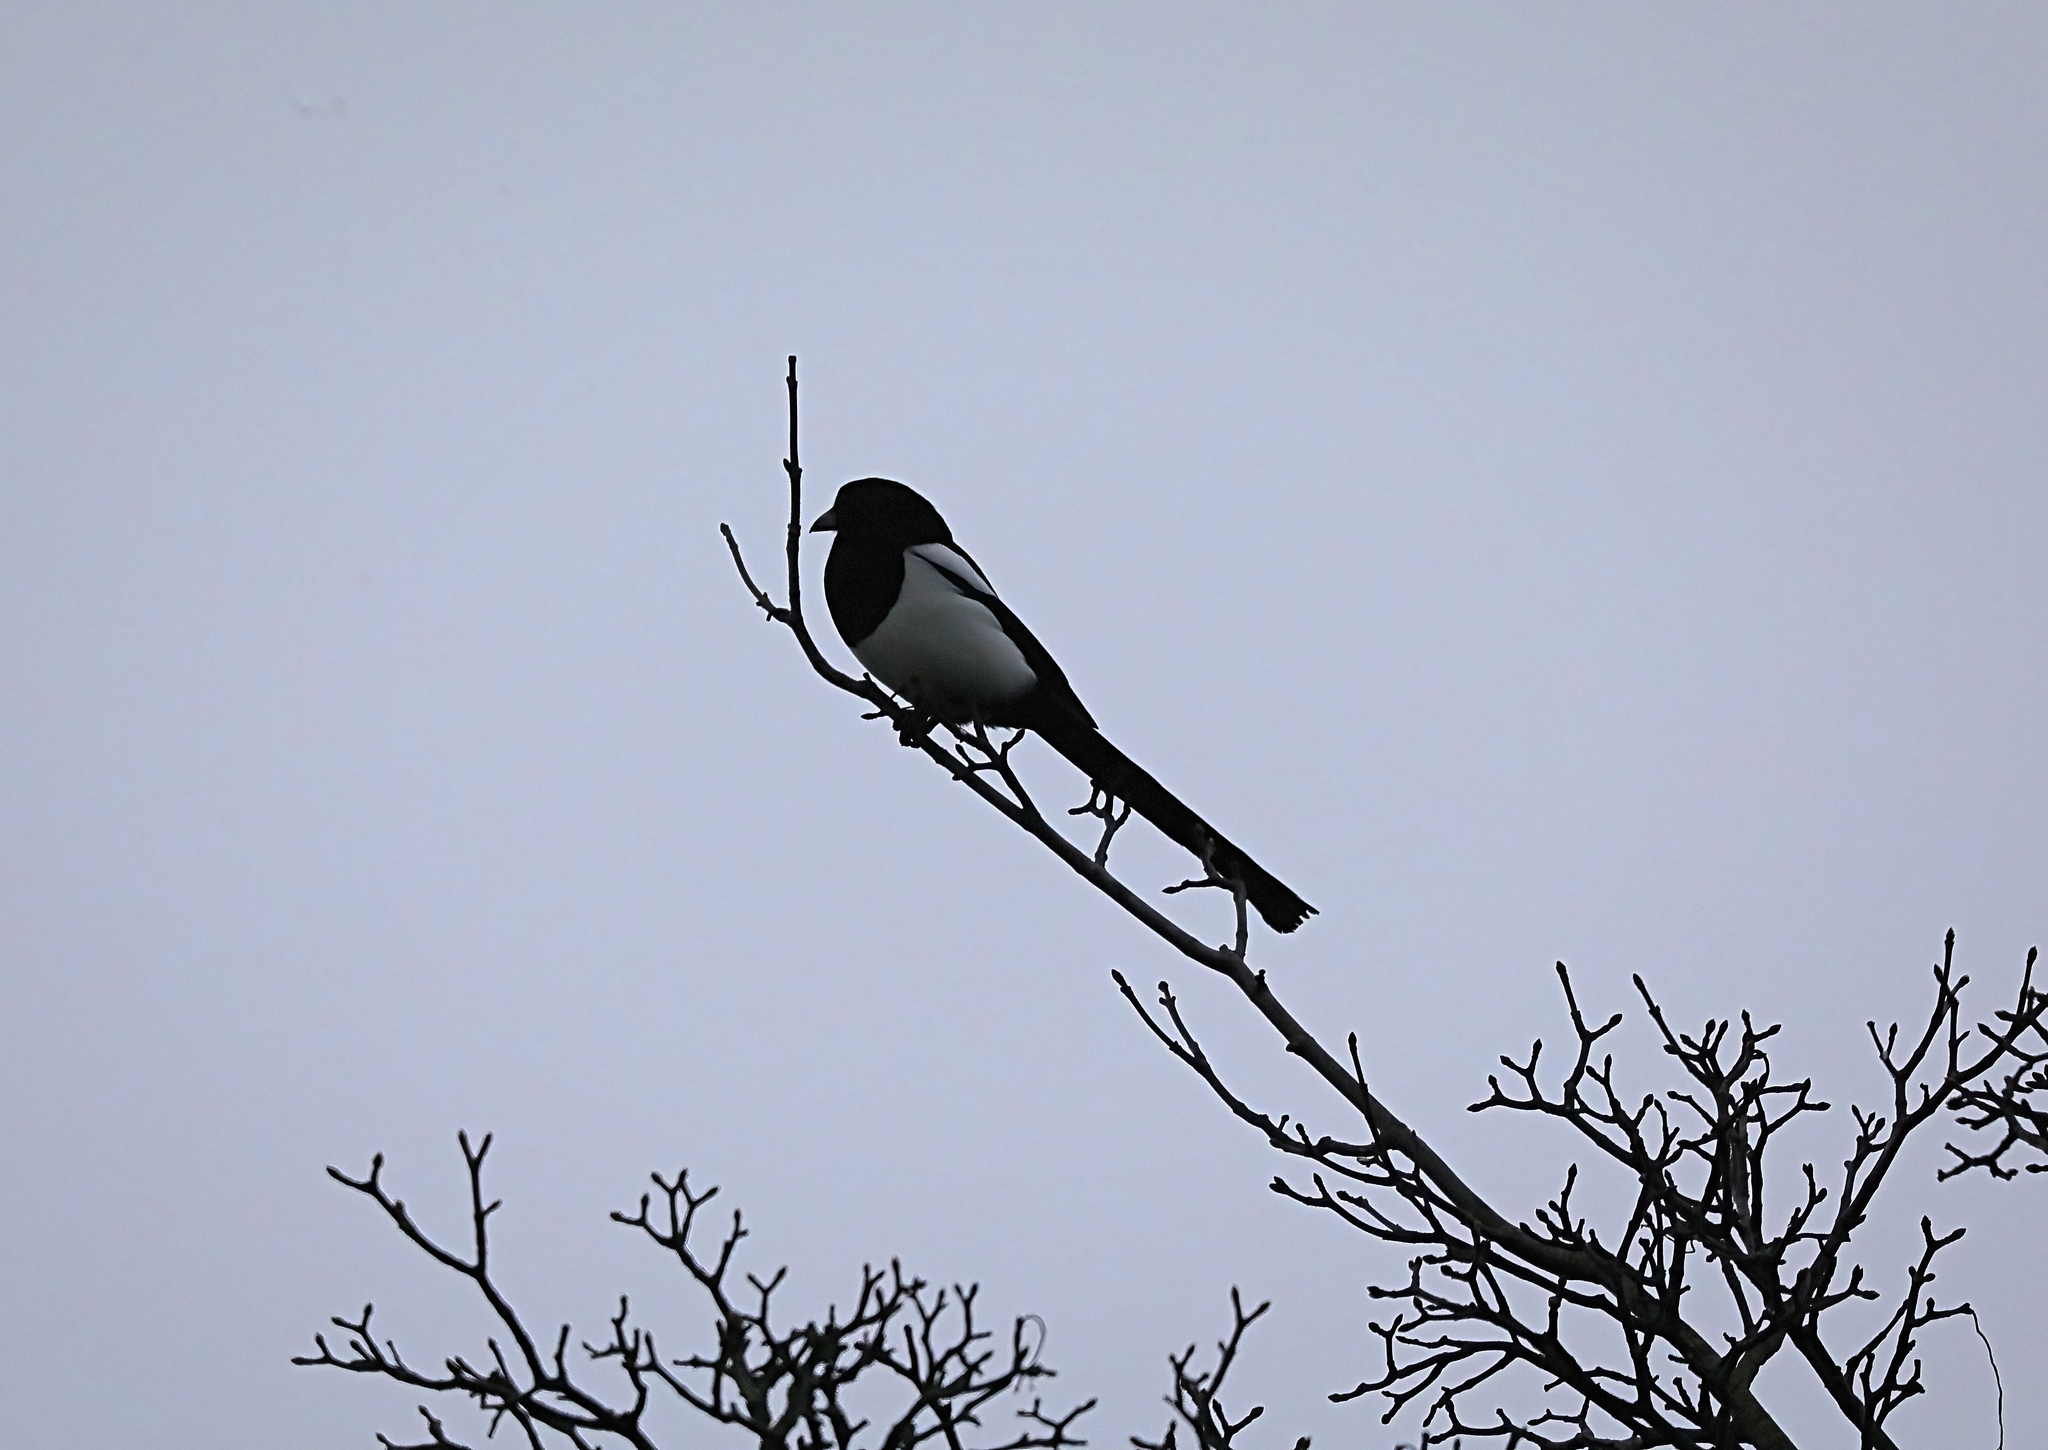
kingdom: Animalia
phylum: Chordata
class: Aves
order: Passeriformes
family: Corvidae
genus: Pica
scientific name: Pica pica
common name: Eurasian magpie
